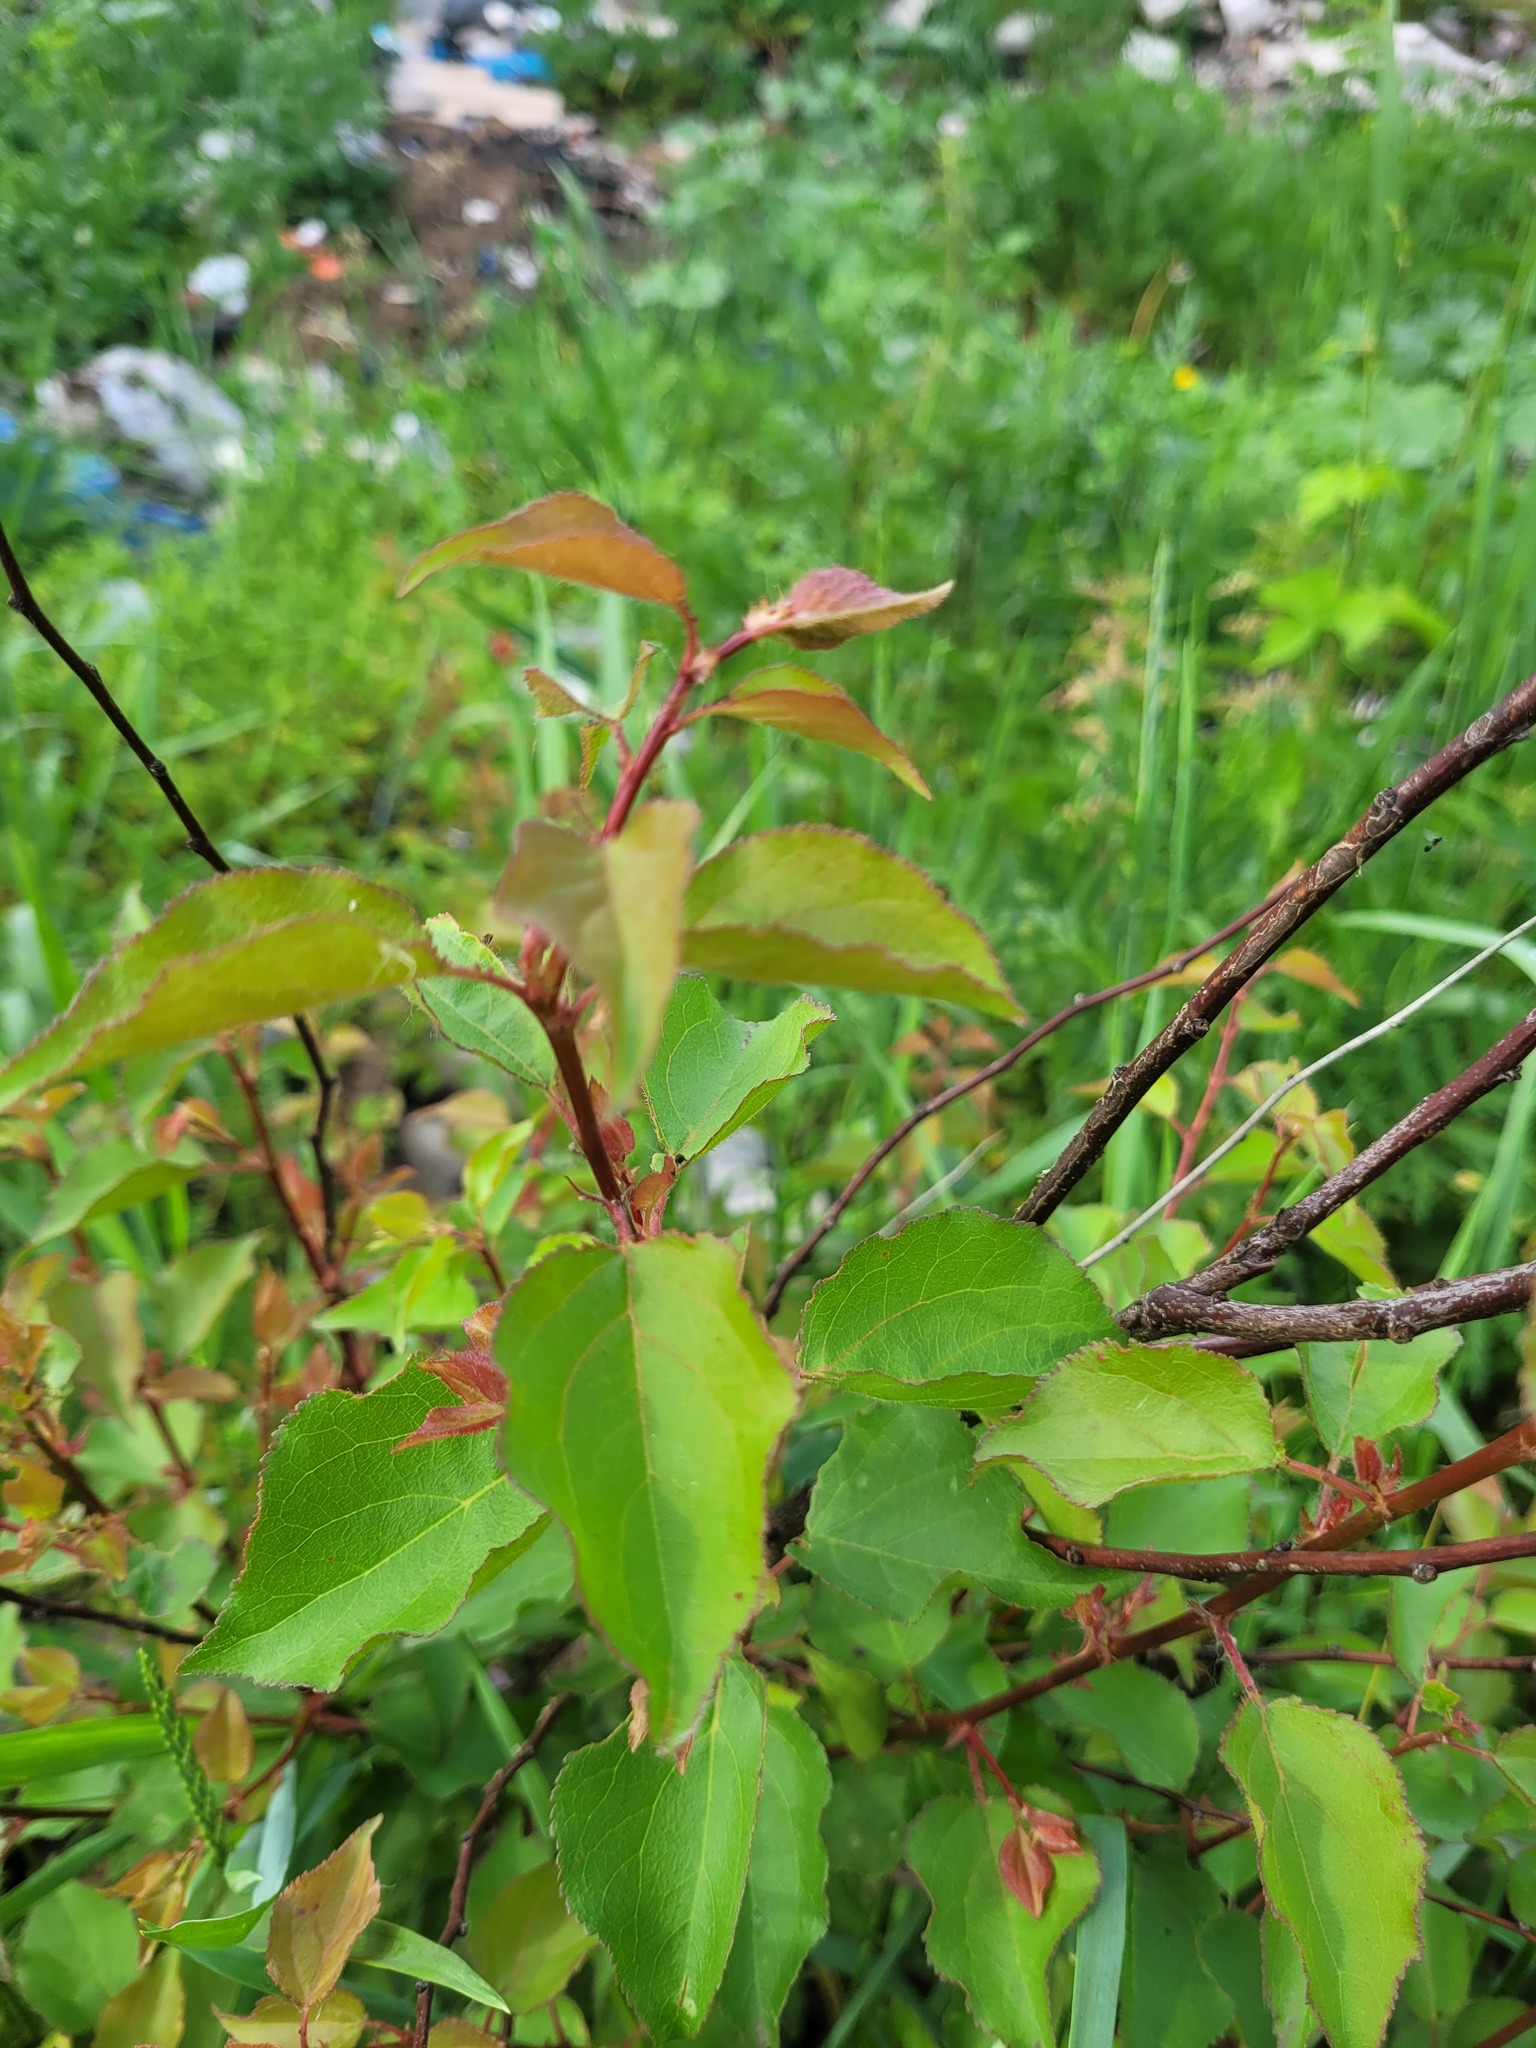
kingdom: Plantae
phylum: Tracheophyta
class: Magnoliopsida
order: Rosales
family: Rosaceae
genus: Prunus
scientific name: Prunus armeniaca
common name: Apricot
